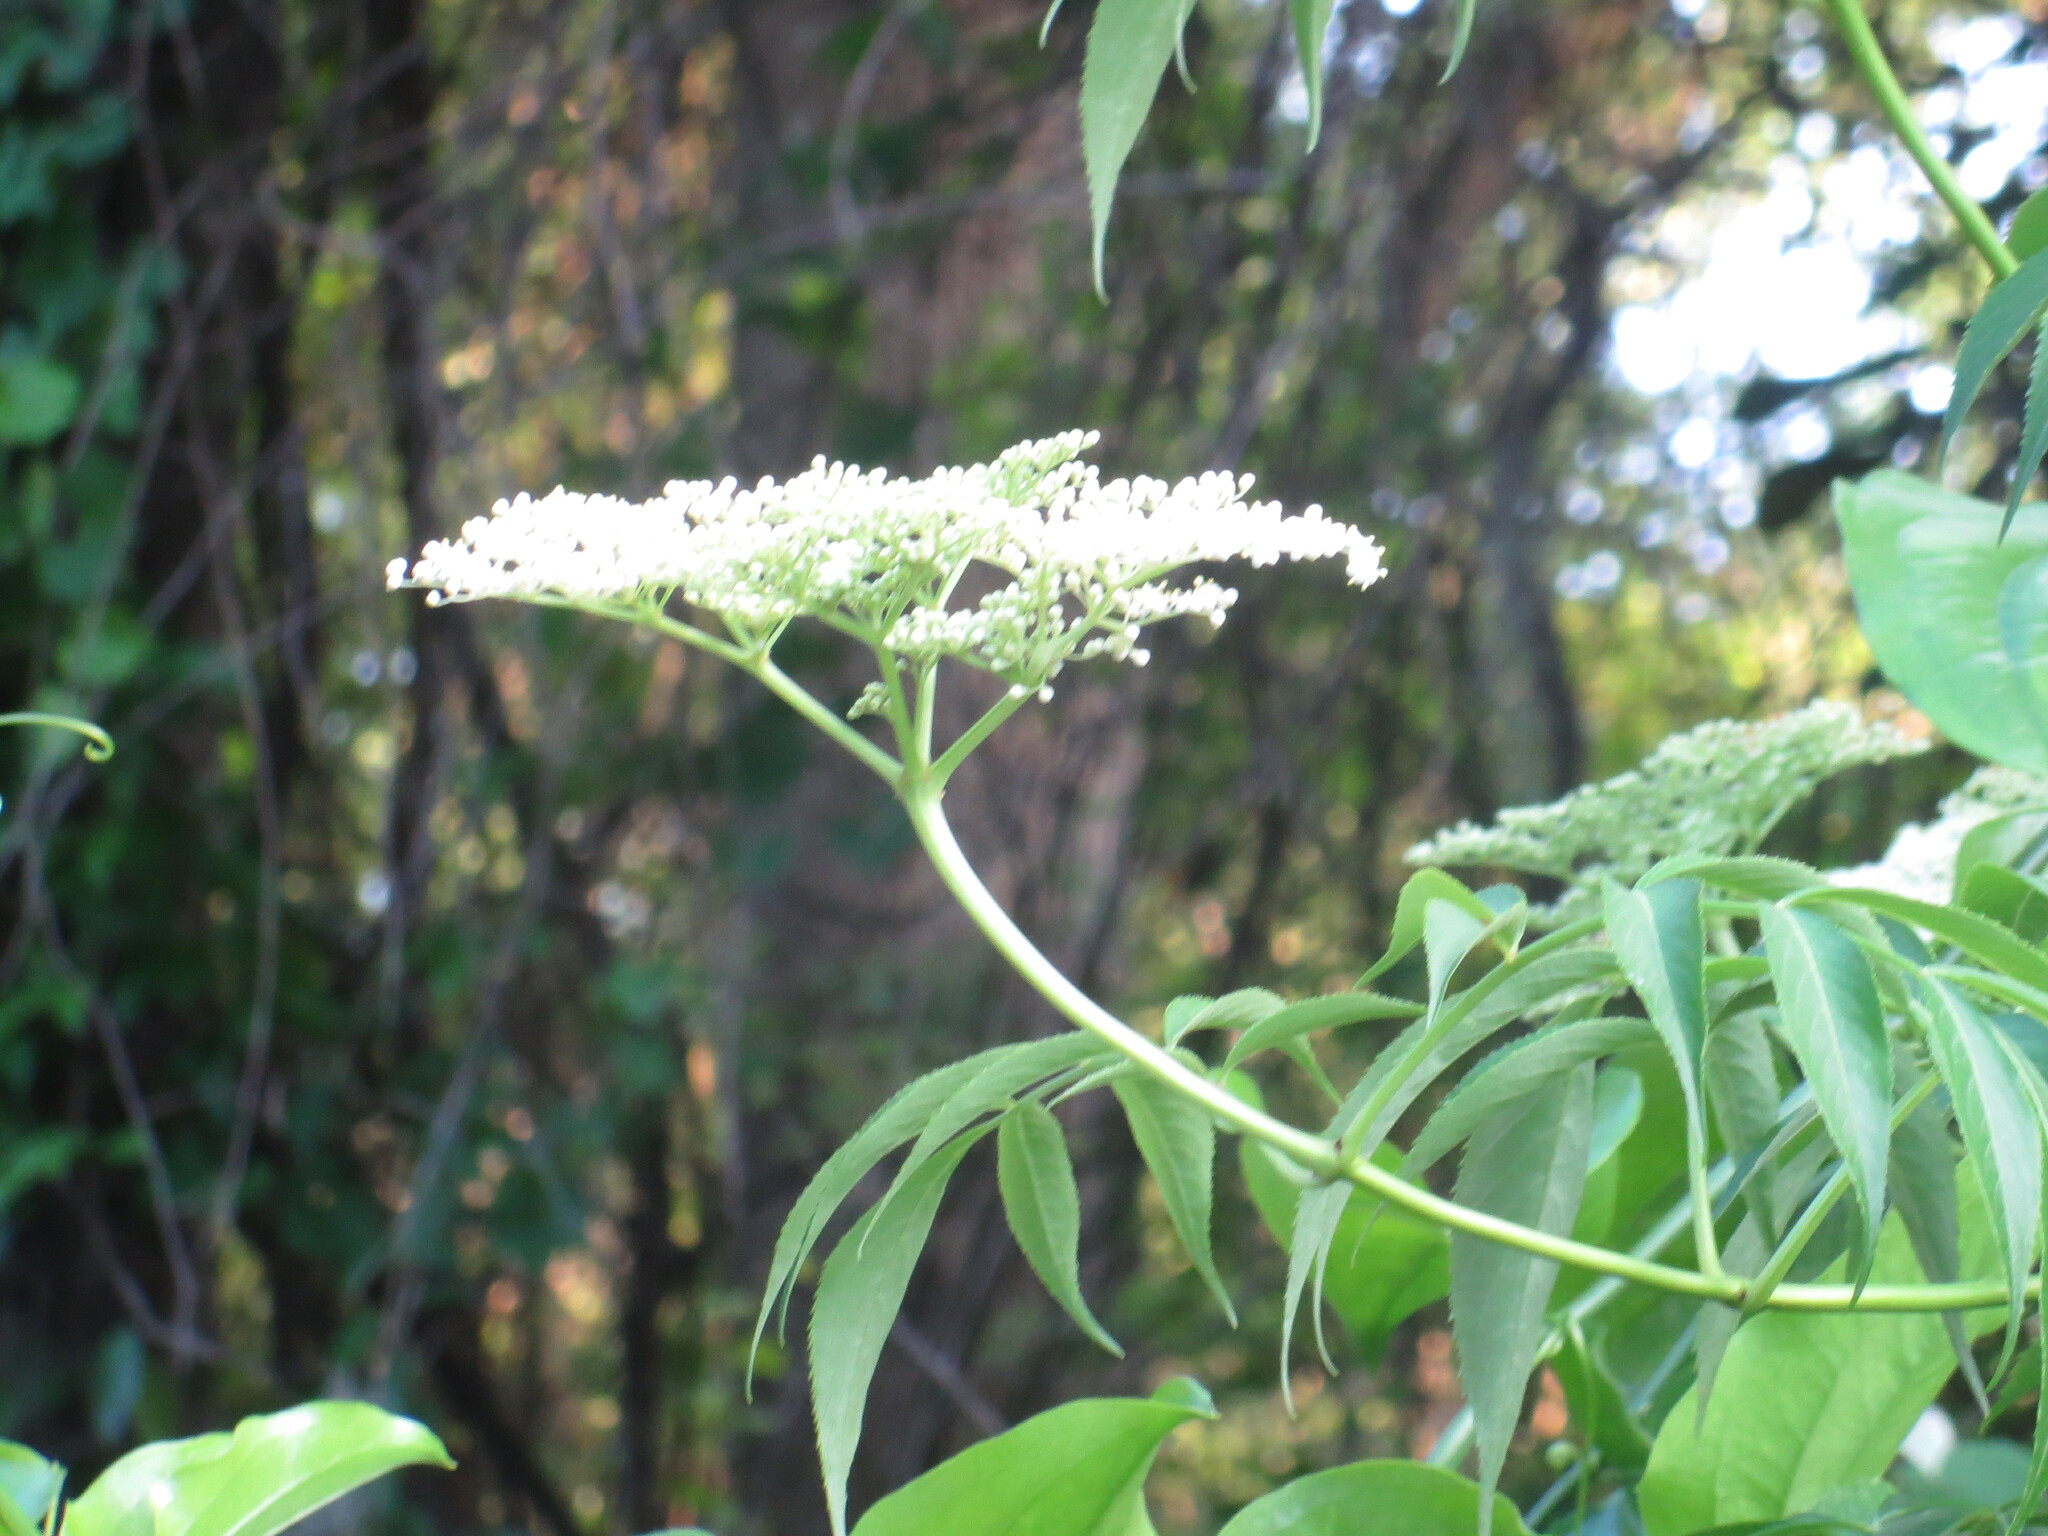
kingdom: Plantae
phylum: Tracheophyta
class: Magnoliopsida
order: Dipsacales
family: Viburnaceae
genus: Sambucus
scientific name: Sambucus canadensis
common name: American elder
